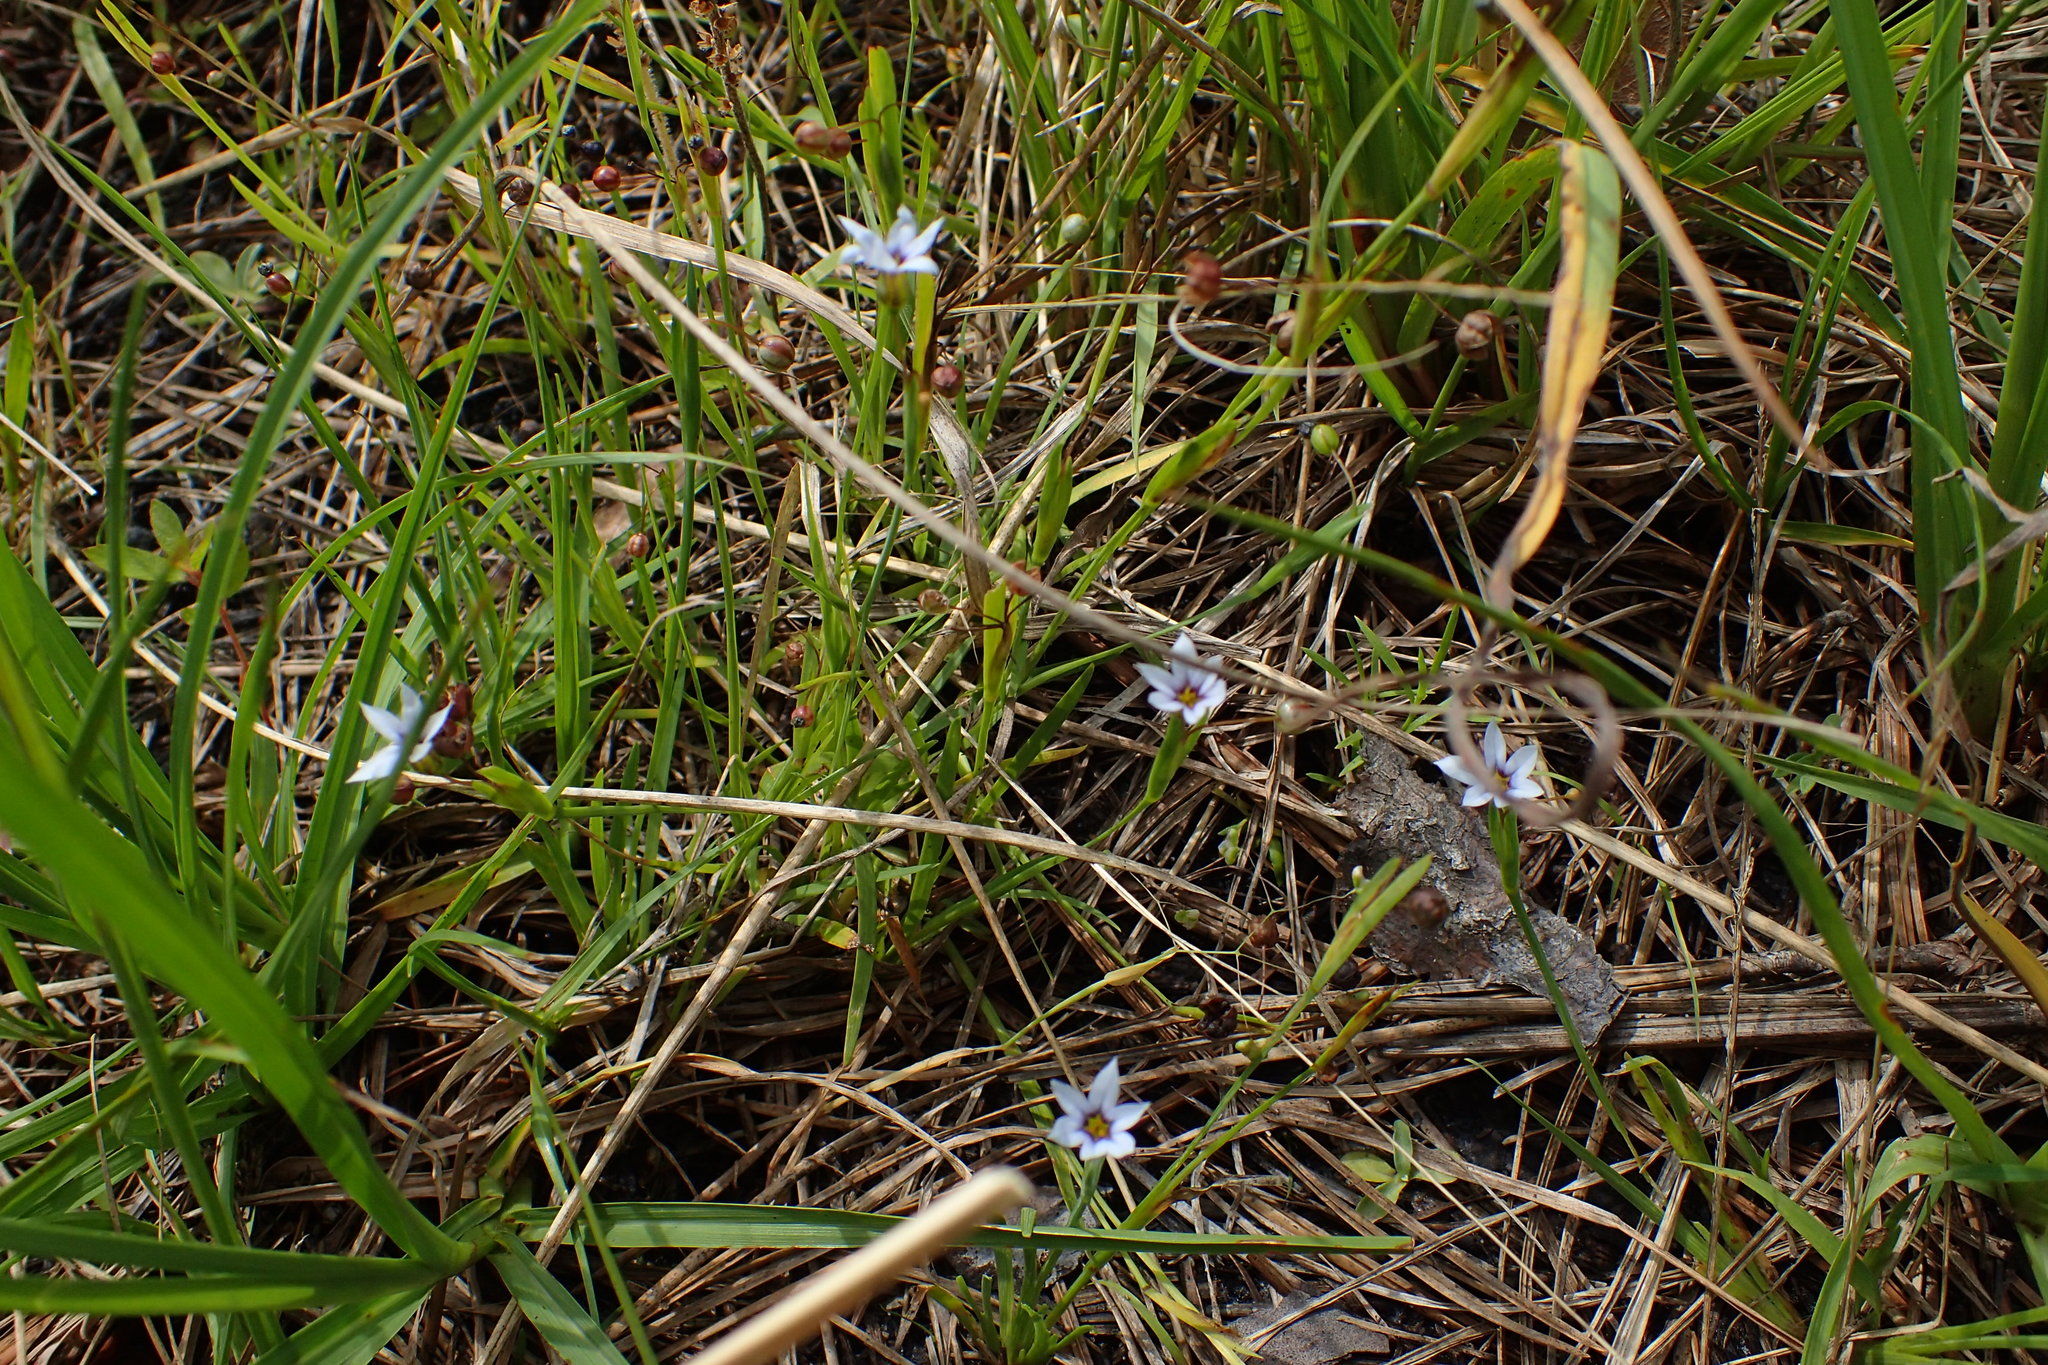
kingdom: Plantae
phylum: Tracheophyta
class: Liliopsida
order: Asparagales
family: Iridaceae
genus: Sisyrinchium
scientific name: Sisyrinchium micranthum
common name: Bermuda pigroot
